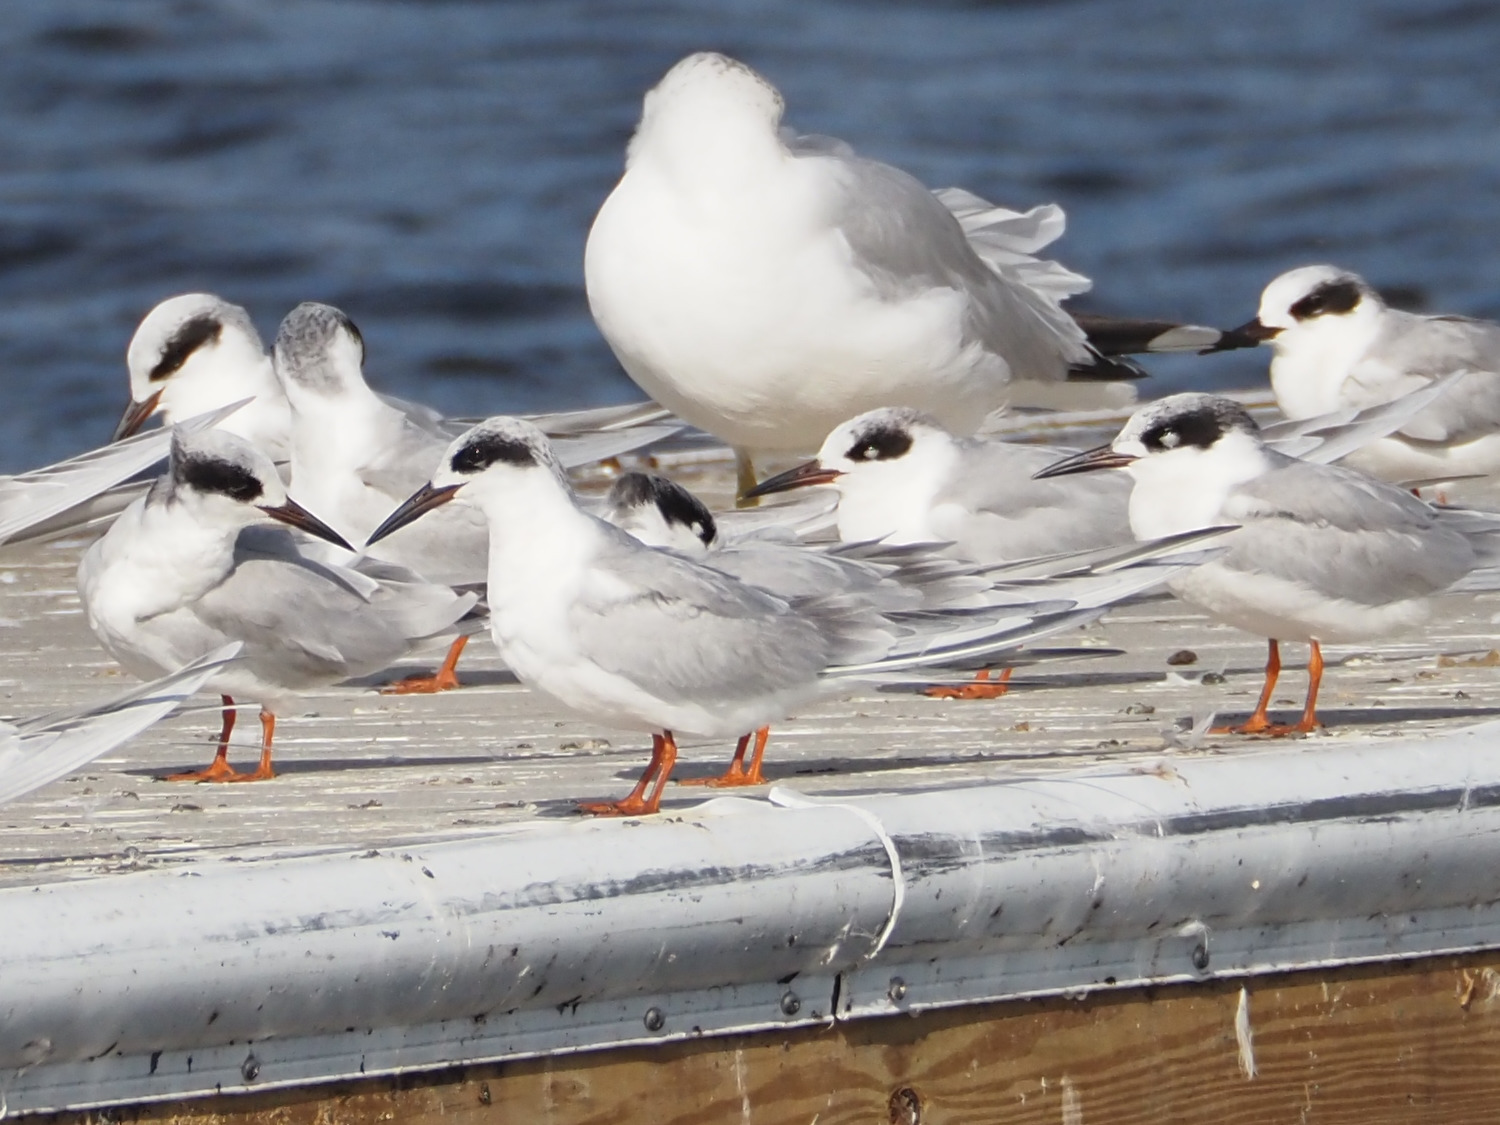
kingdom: Animalia
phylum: Chordata
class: Aves
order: Charadriiformes
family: Laridae
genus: Sterna
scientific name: Sterna forsteri
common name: Forster's tern
